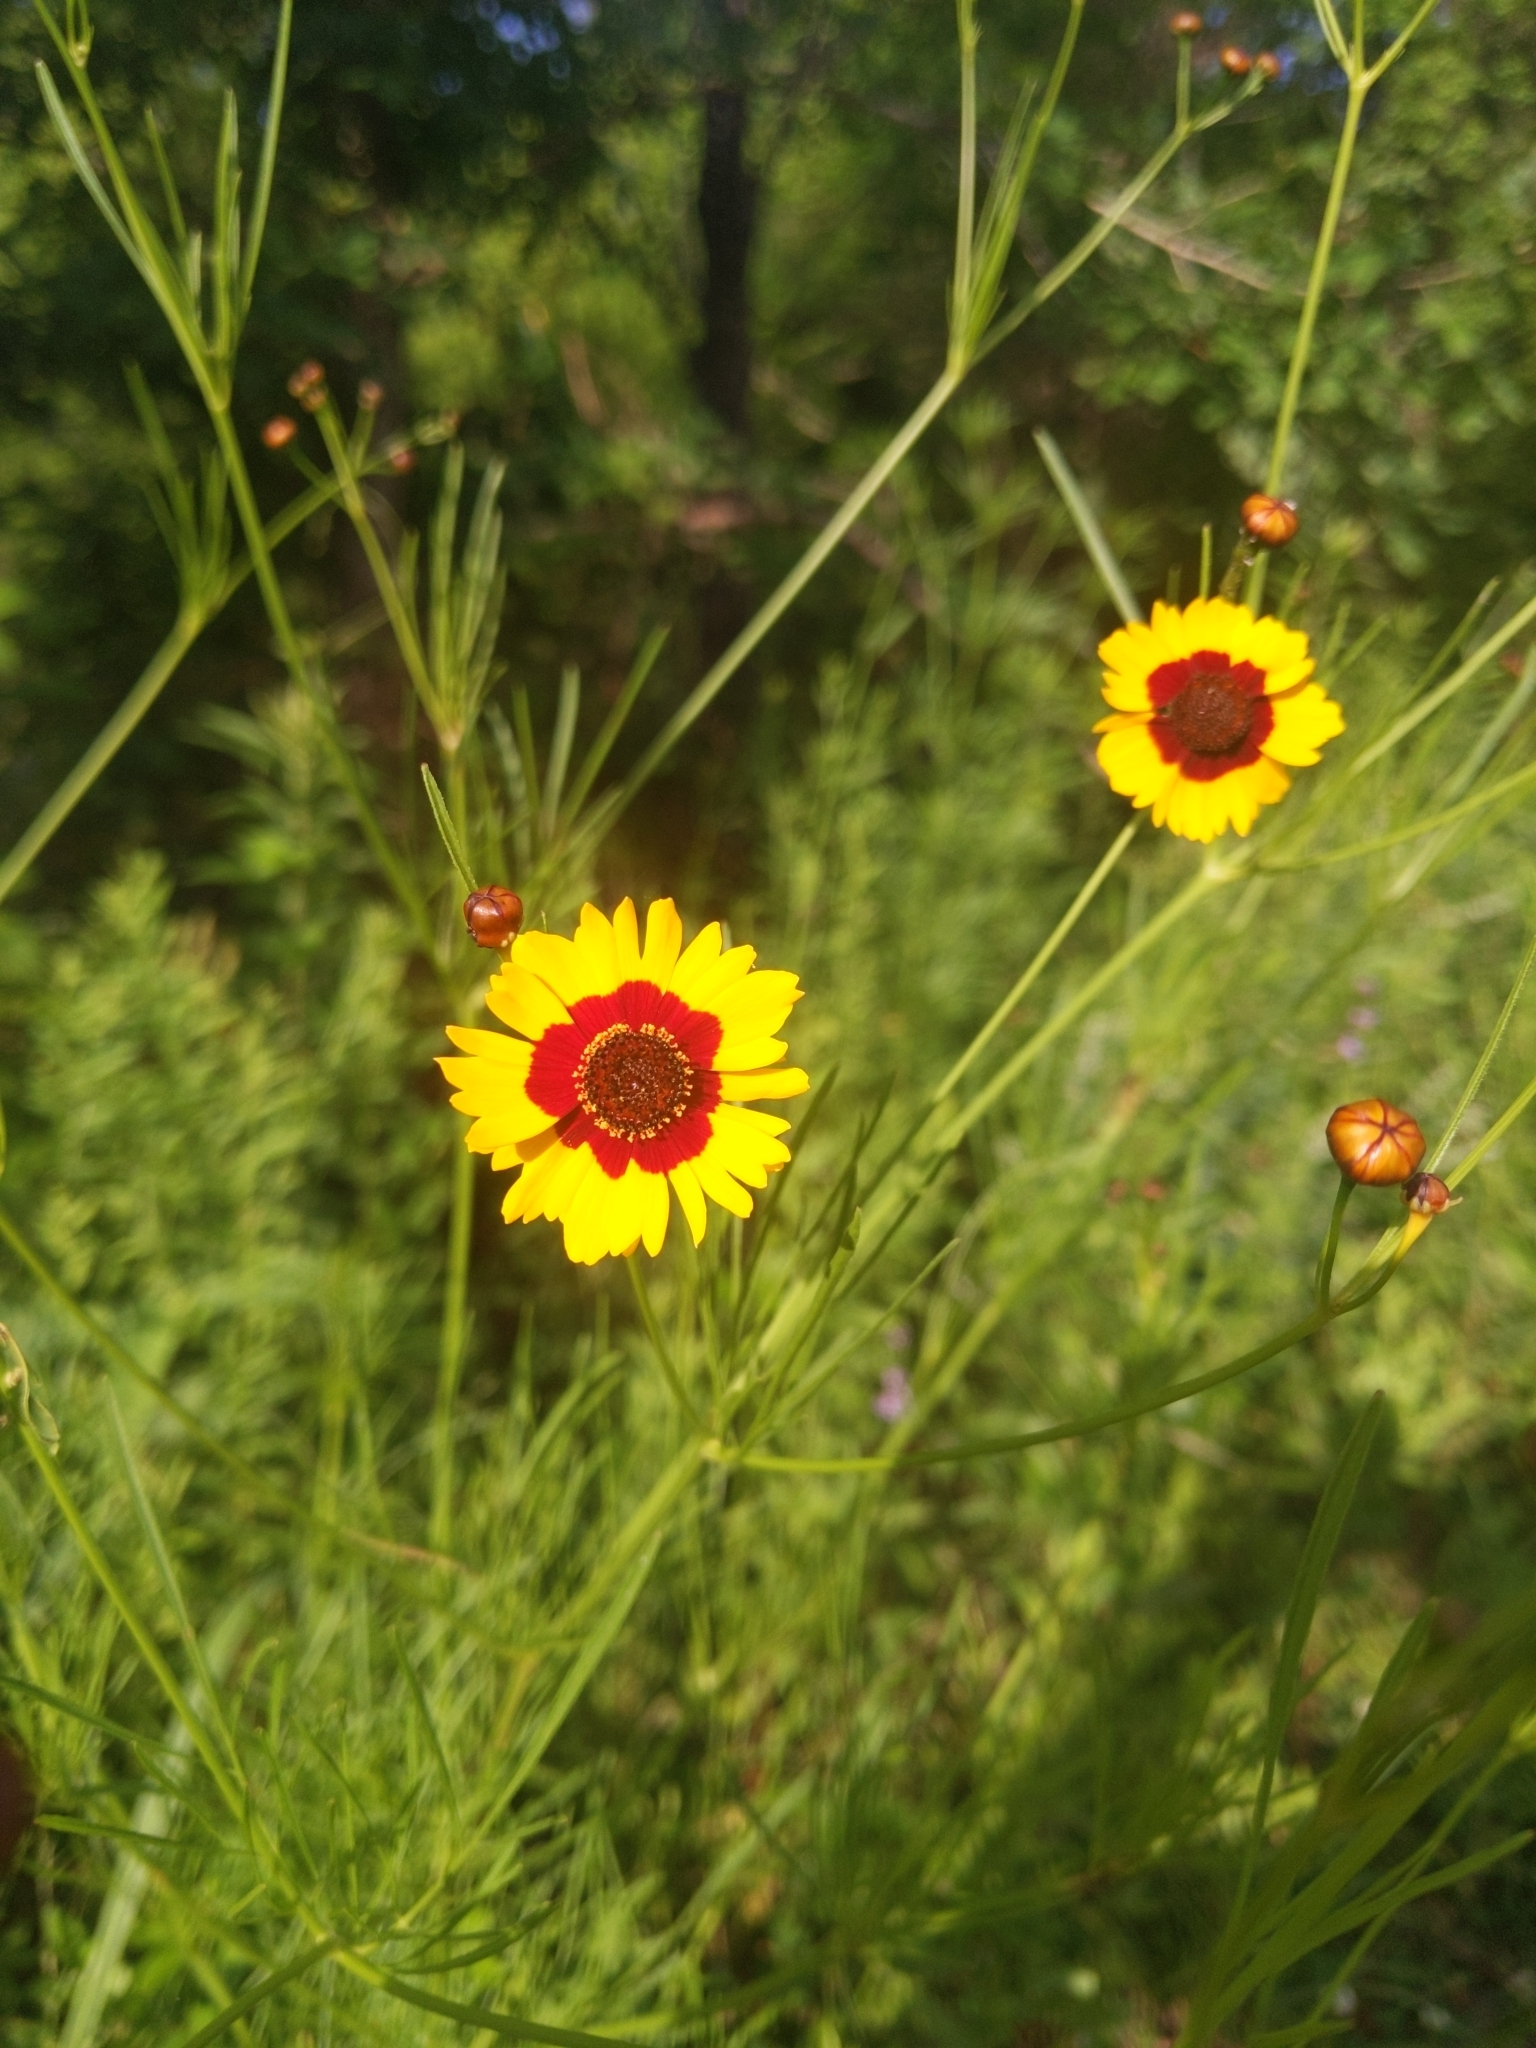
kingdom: Plantae
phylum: Tracheophyta
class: Magnoliopsida
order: Asterales
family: Asteraceae
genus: Coreopsis
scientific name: Coreopsis tinctoria
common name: Garden tickseed
